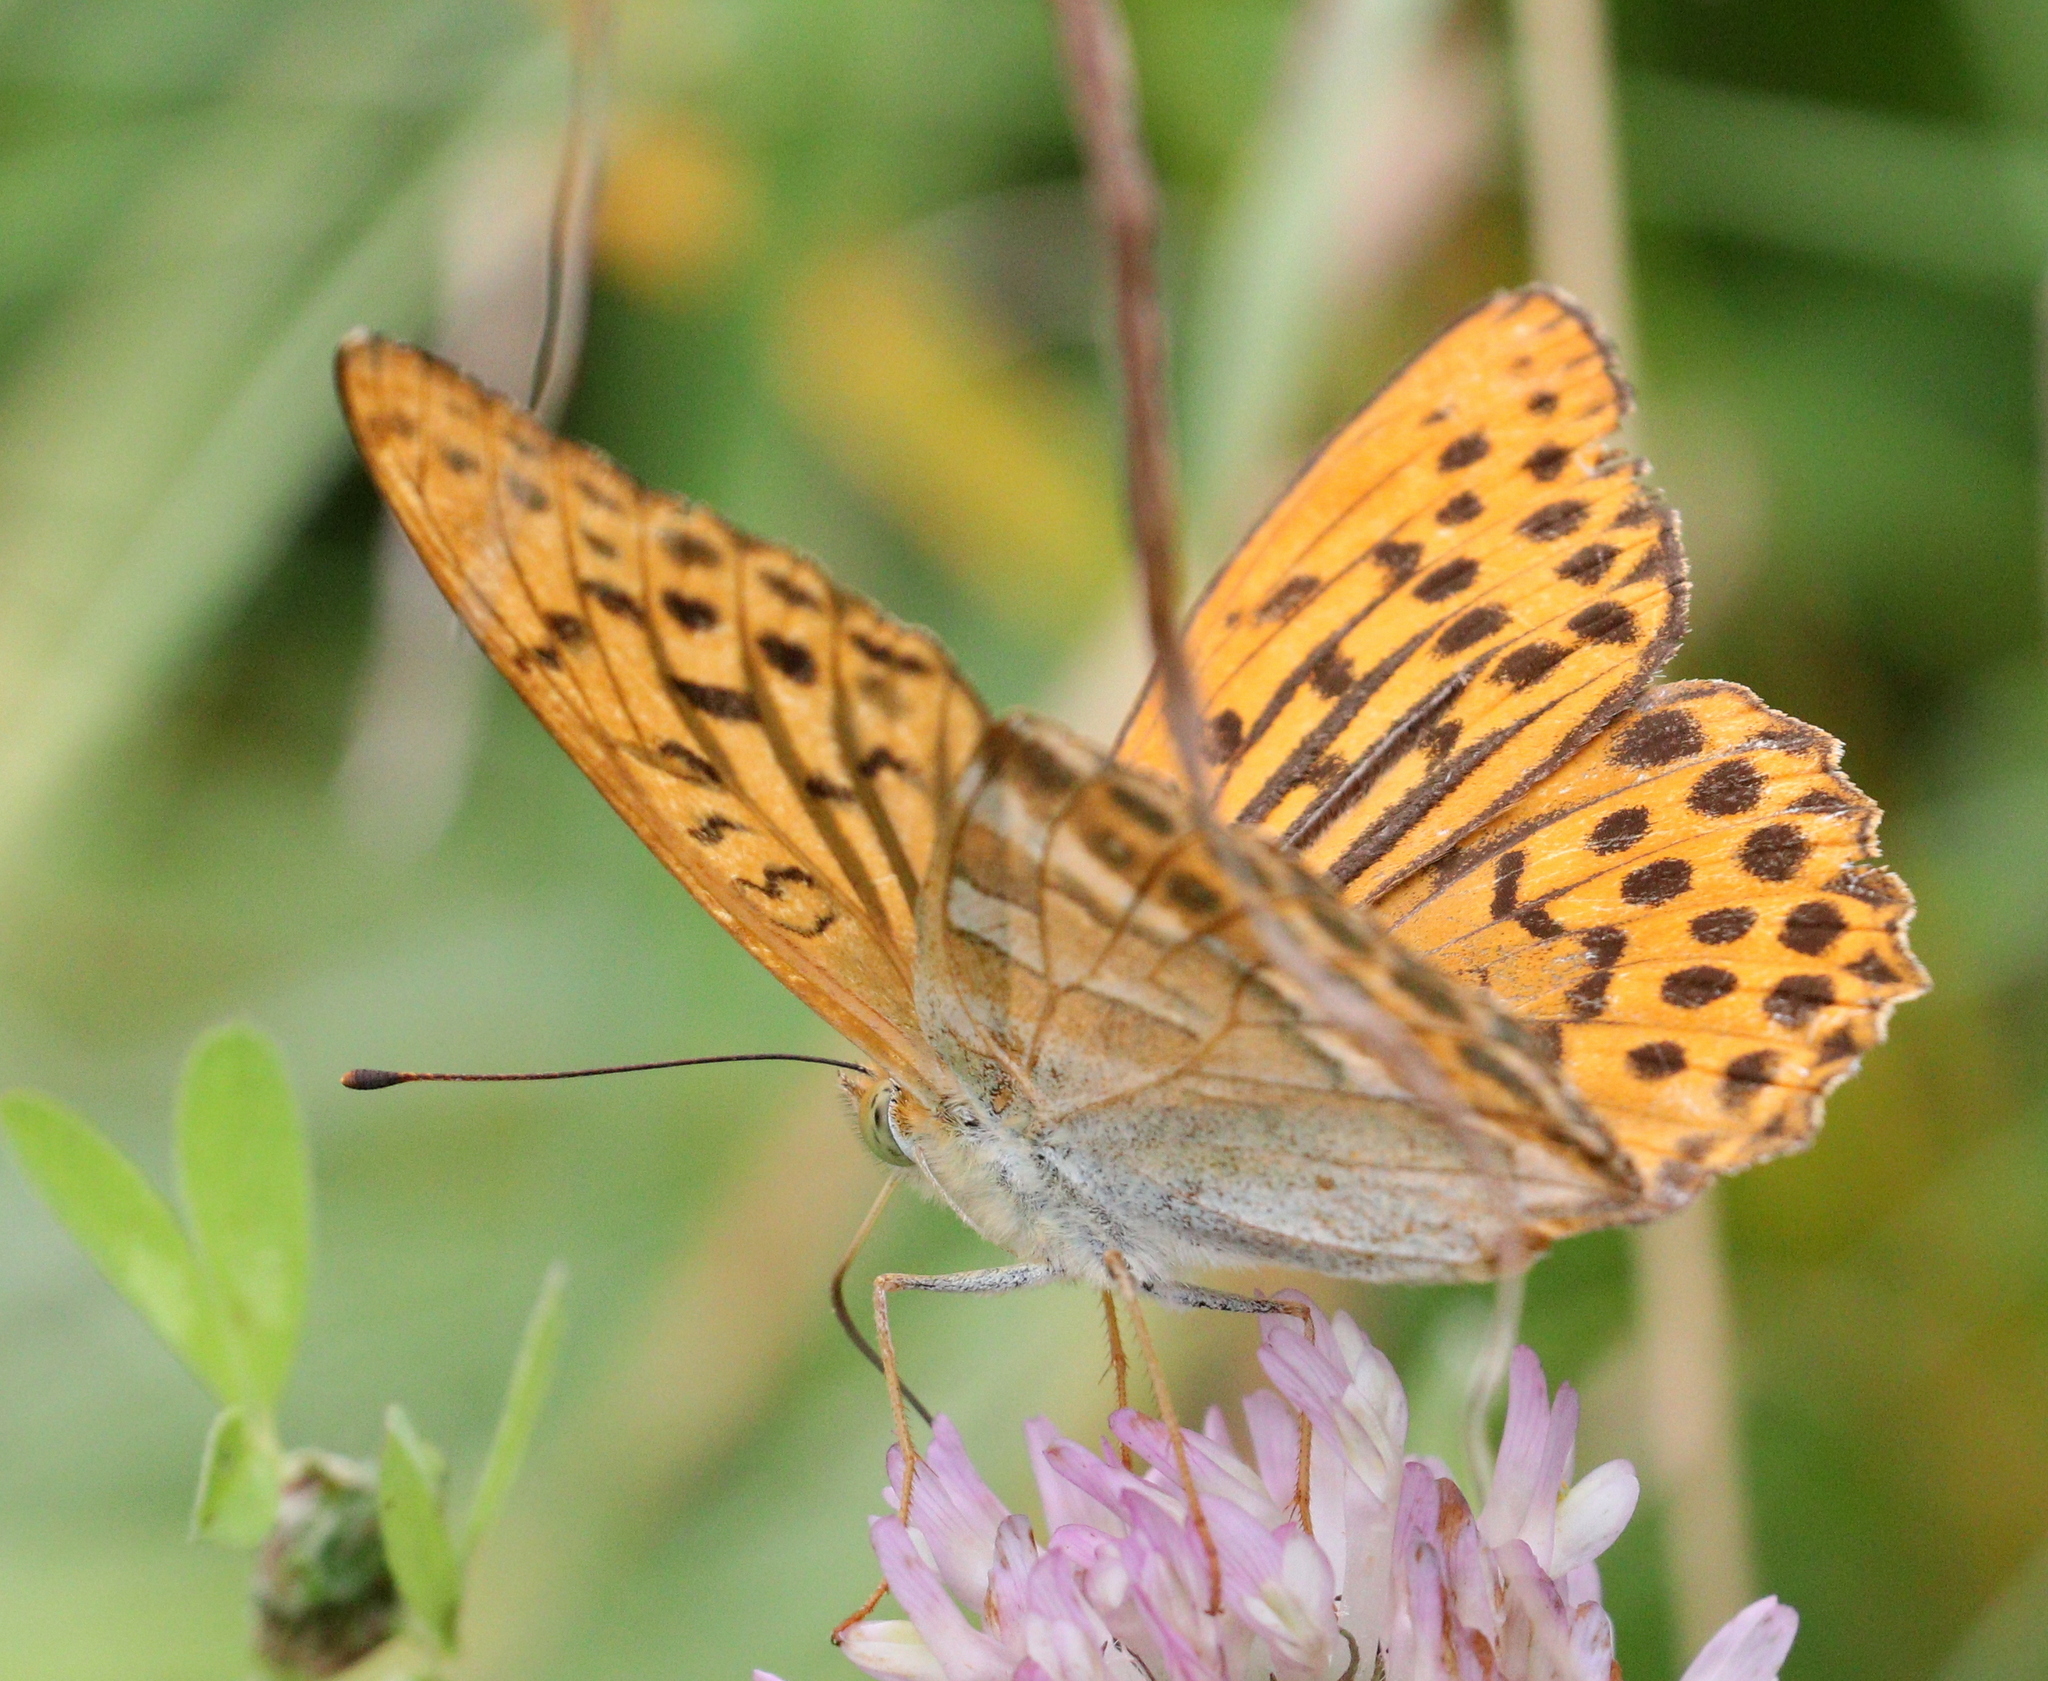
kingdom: Animalia
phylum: Arthropoda
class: Insecta
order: Lepidoptera
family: Nymphalidae
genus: Argynnis
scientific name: Argynnis paphia
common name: Silver-washed fritillary
